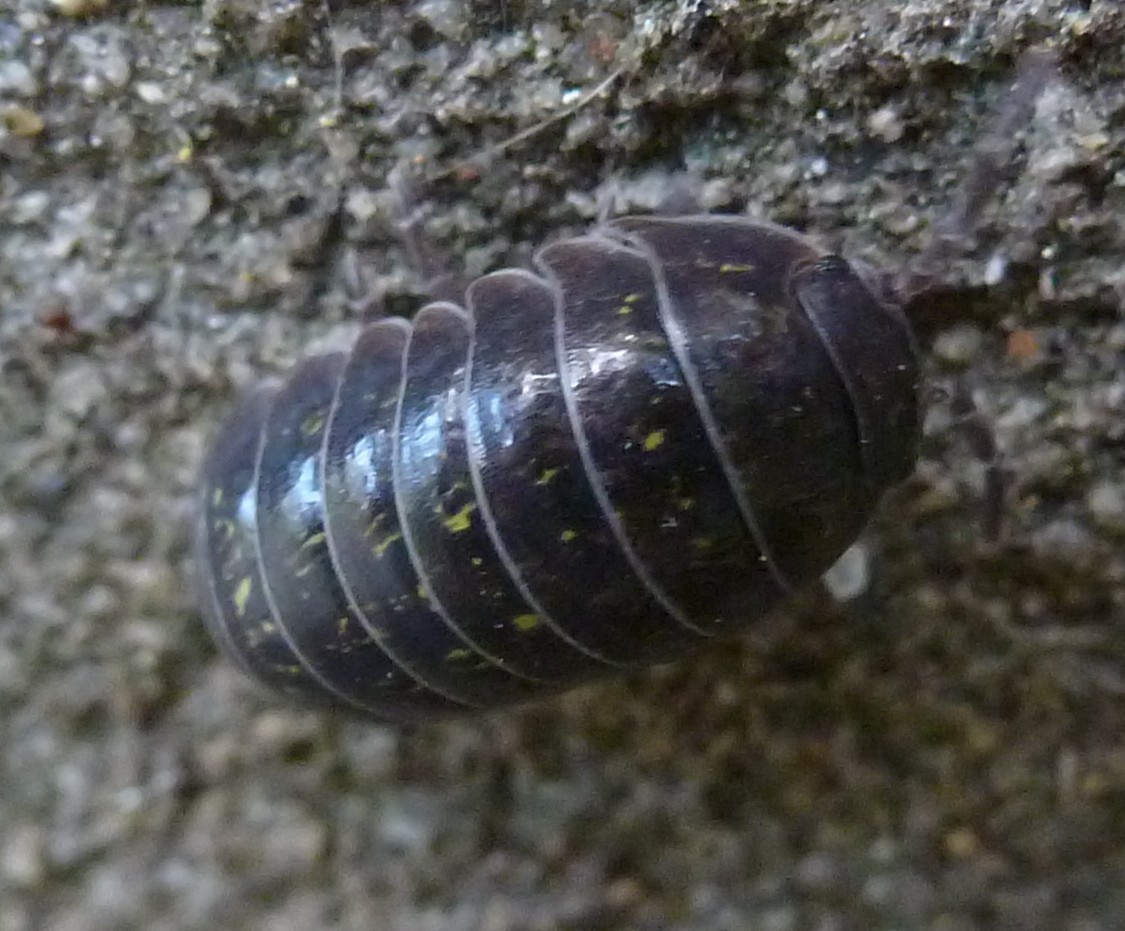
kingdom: Animalia
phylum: Arthropoda
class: Malacostraca
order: Isopoda
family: Armadillidiidae
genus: Armadillidium
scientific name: Armadillidium vulgare
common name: Common pill woodlouse
